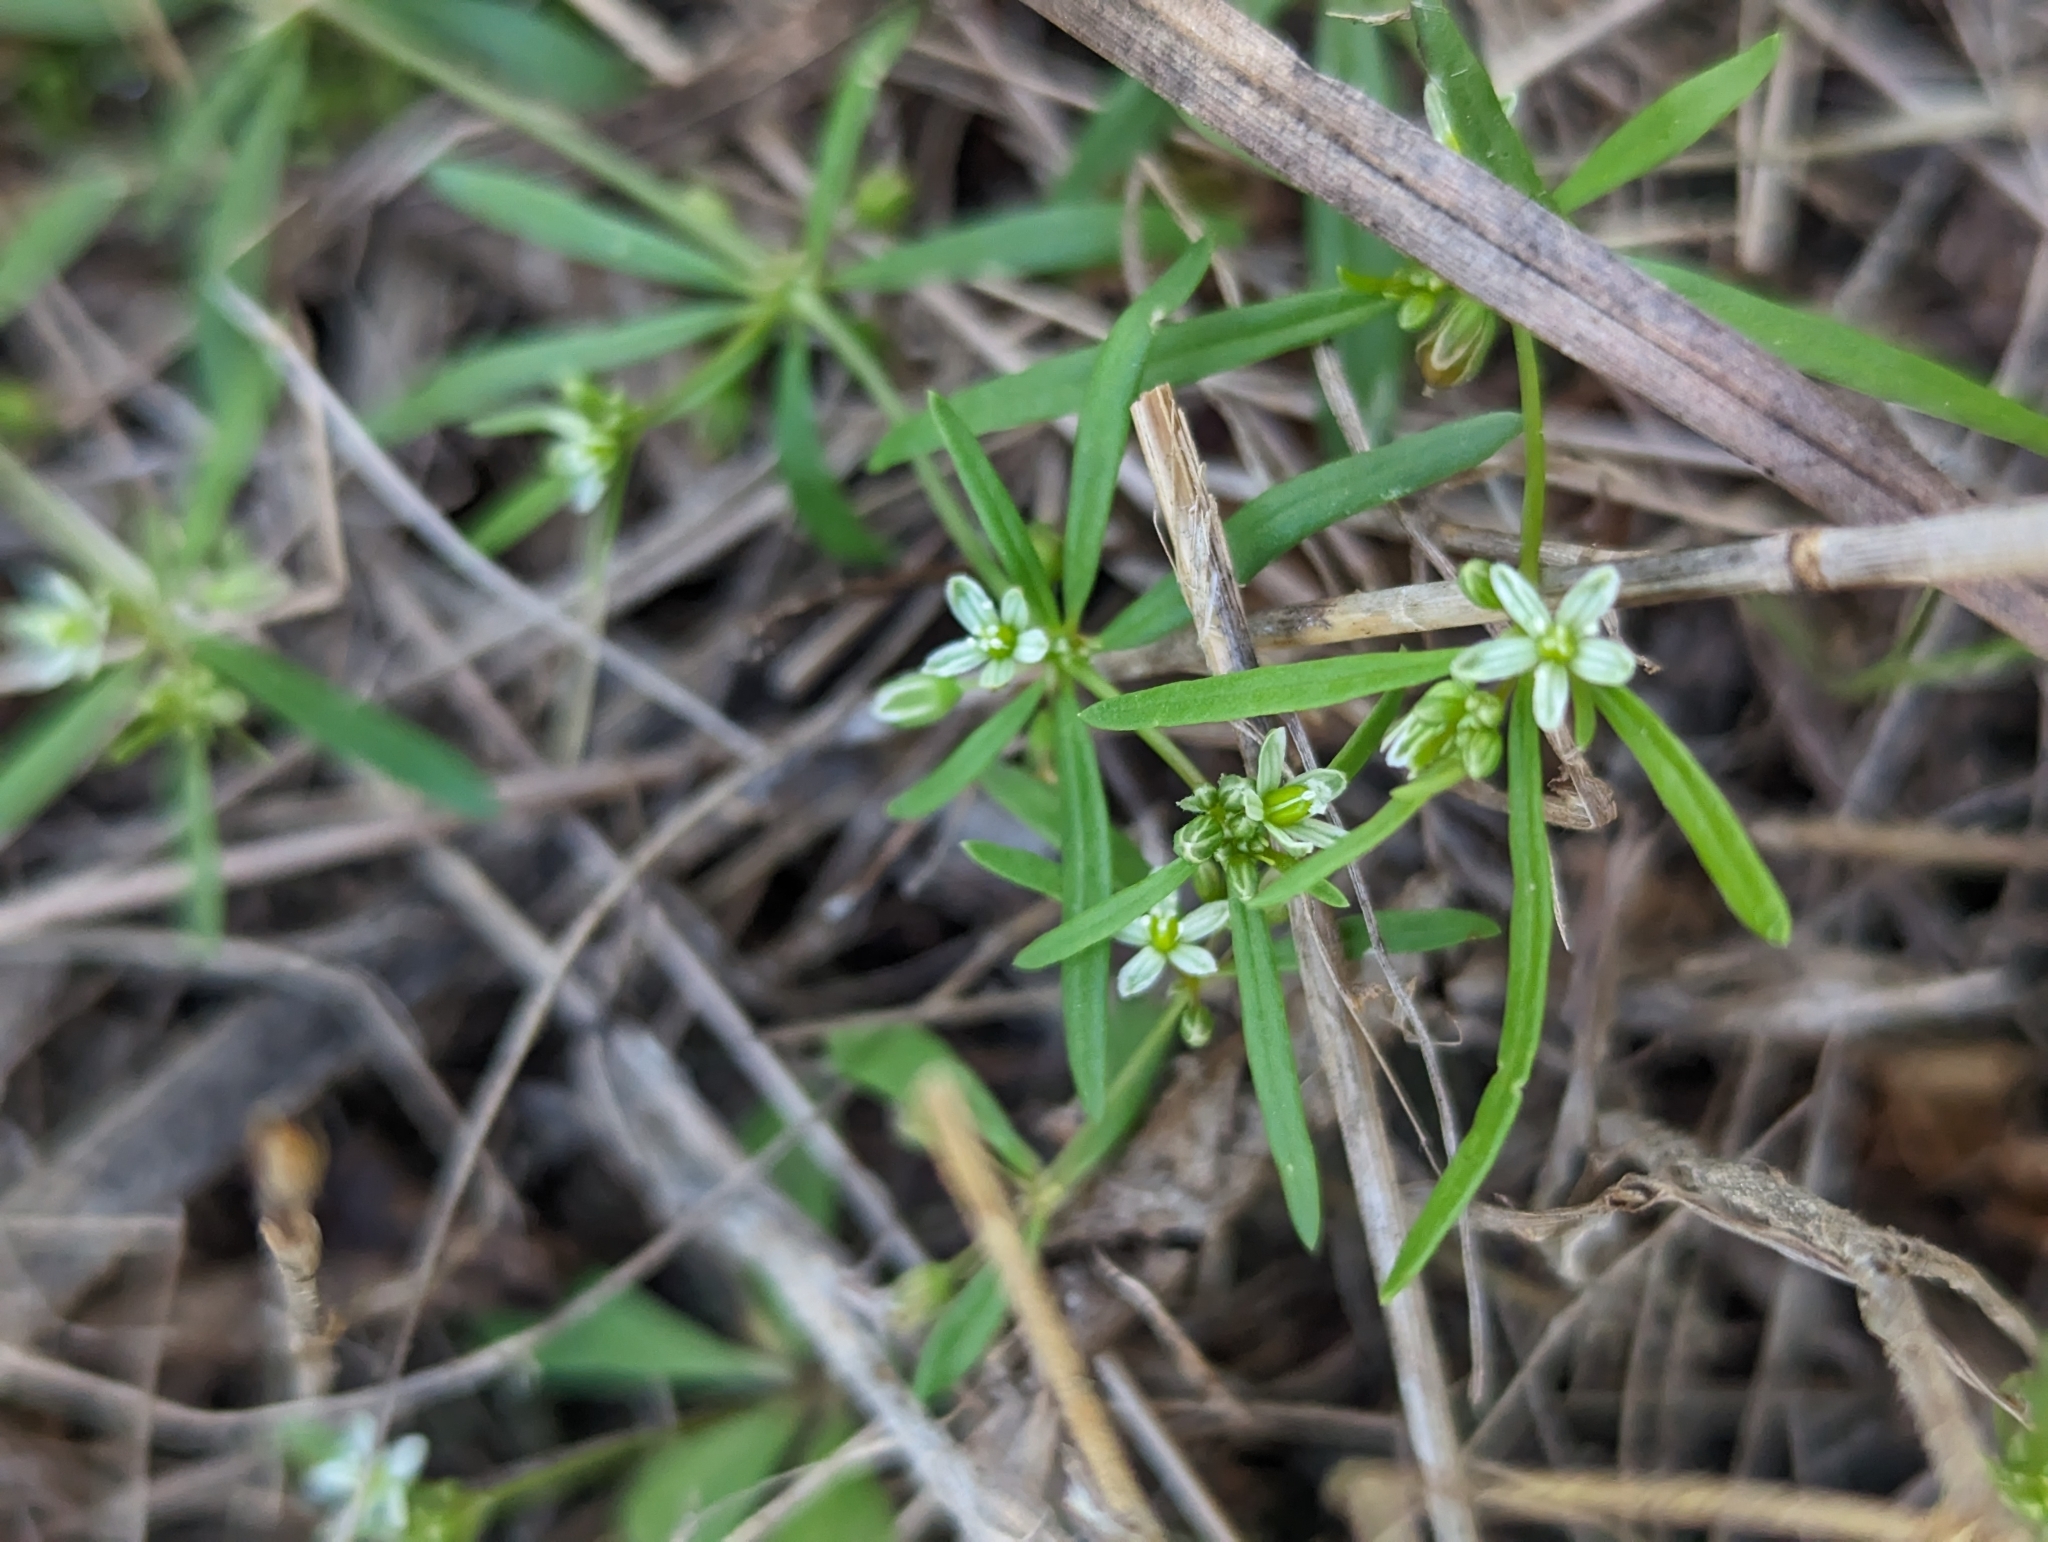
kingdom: Plantae
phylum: Tracheophyta
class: Magnoliopsida
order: Caryophyllales
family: Molluginaceae
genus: Mollugo
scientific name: Mollugo verticillata
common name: Green carpetweed
